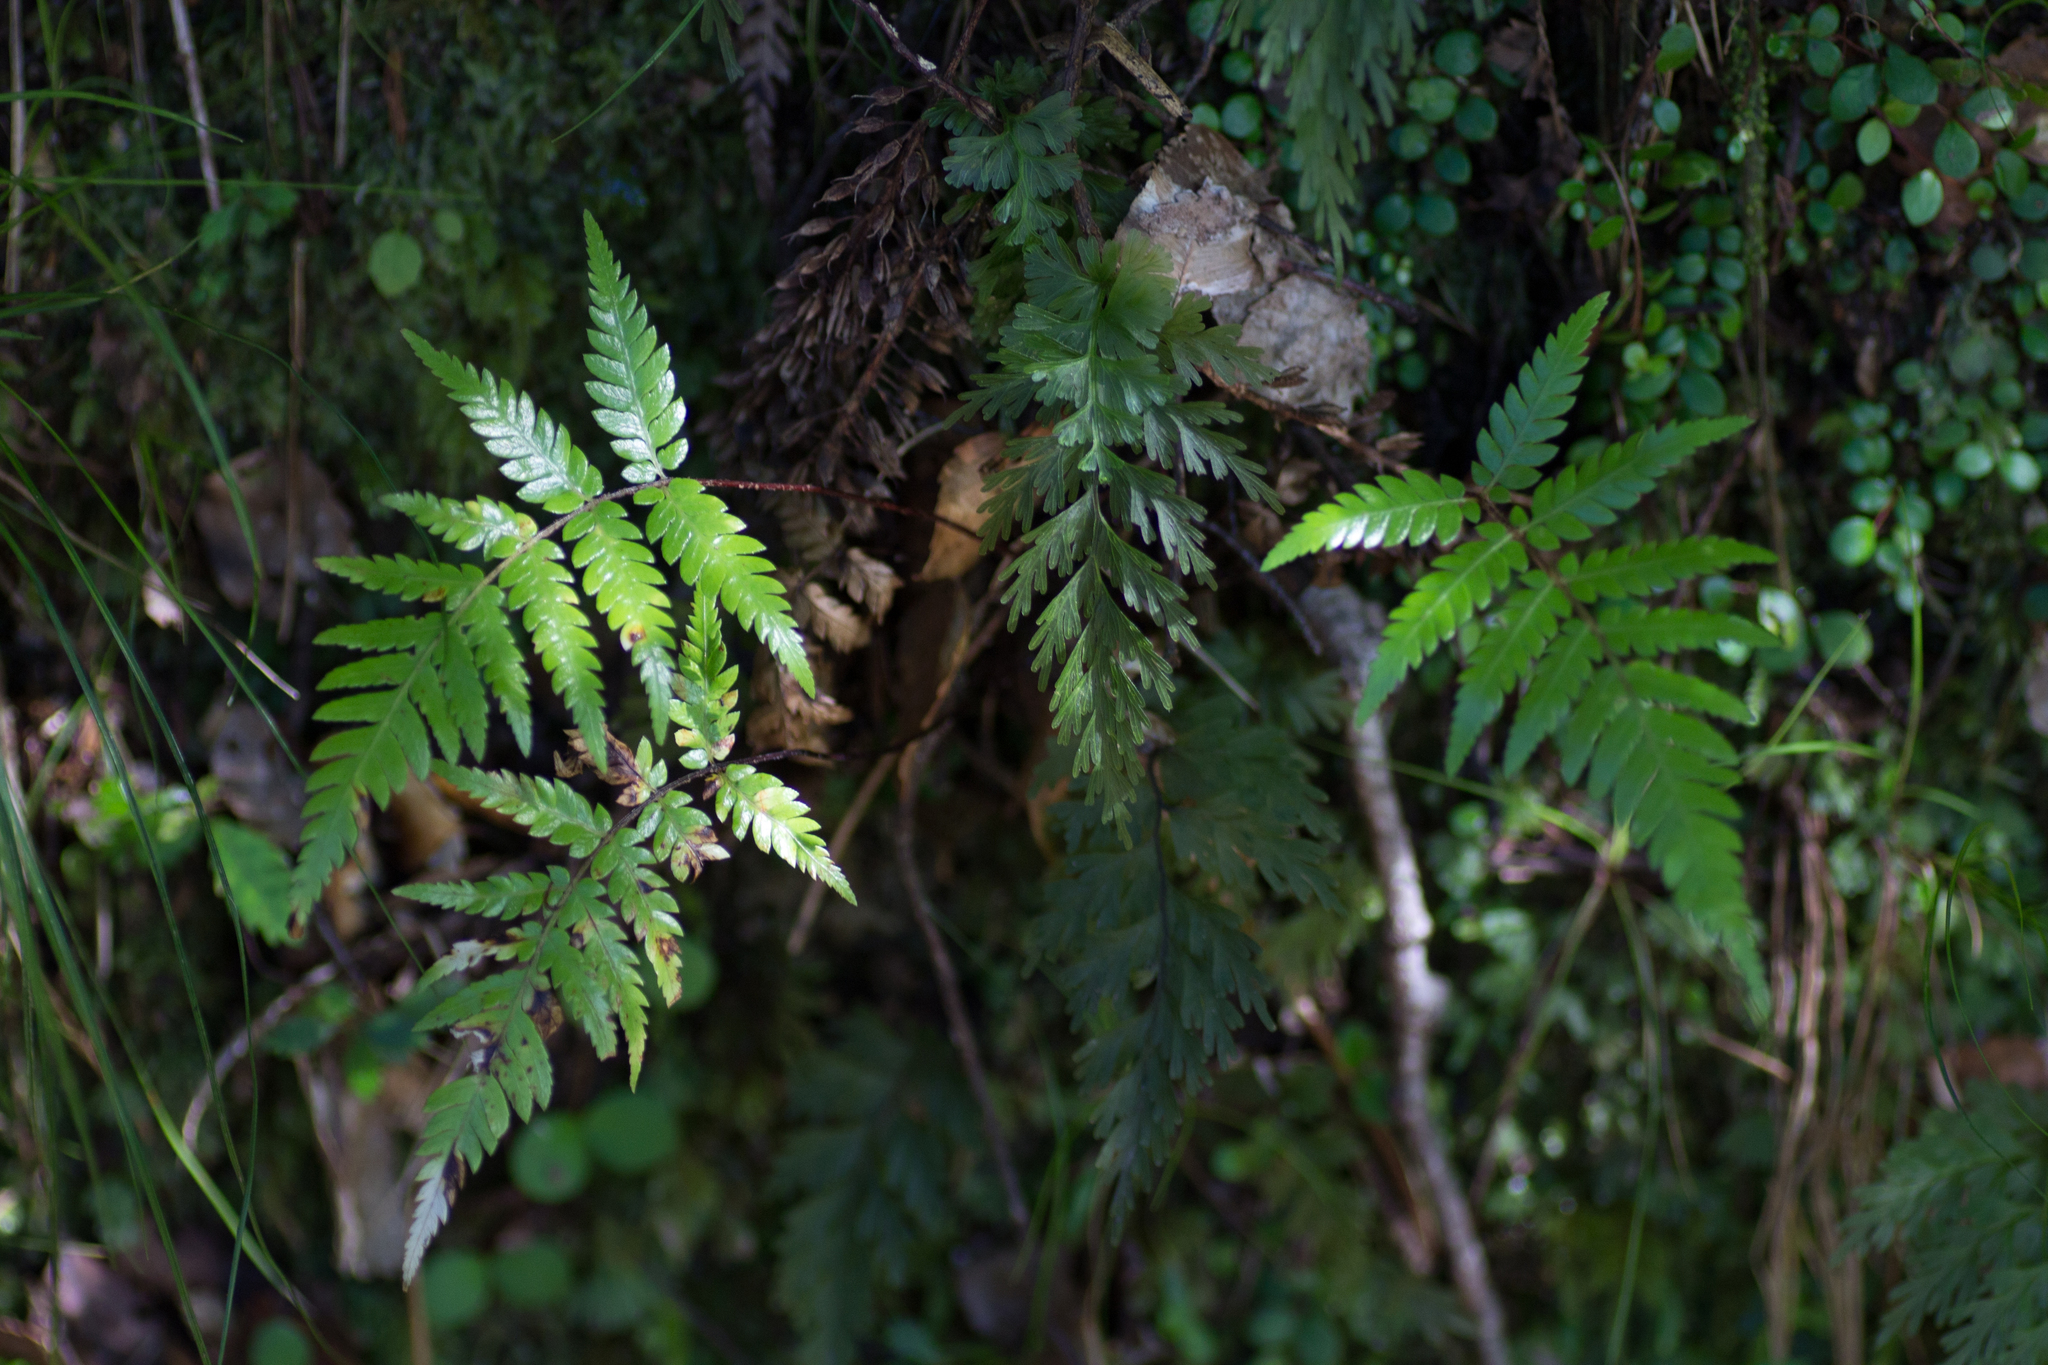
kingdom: Plantae
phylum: Tracheophyta
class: Polypodiopsida
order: Hymenophyllales
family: Hymenophyllaceae
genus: Hymenophyllum
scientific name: Hymenophyllum demissum
